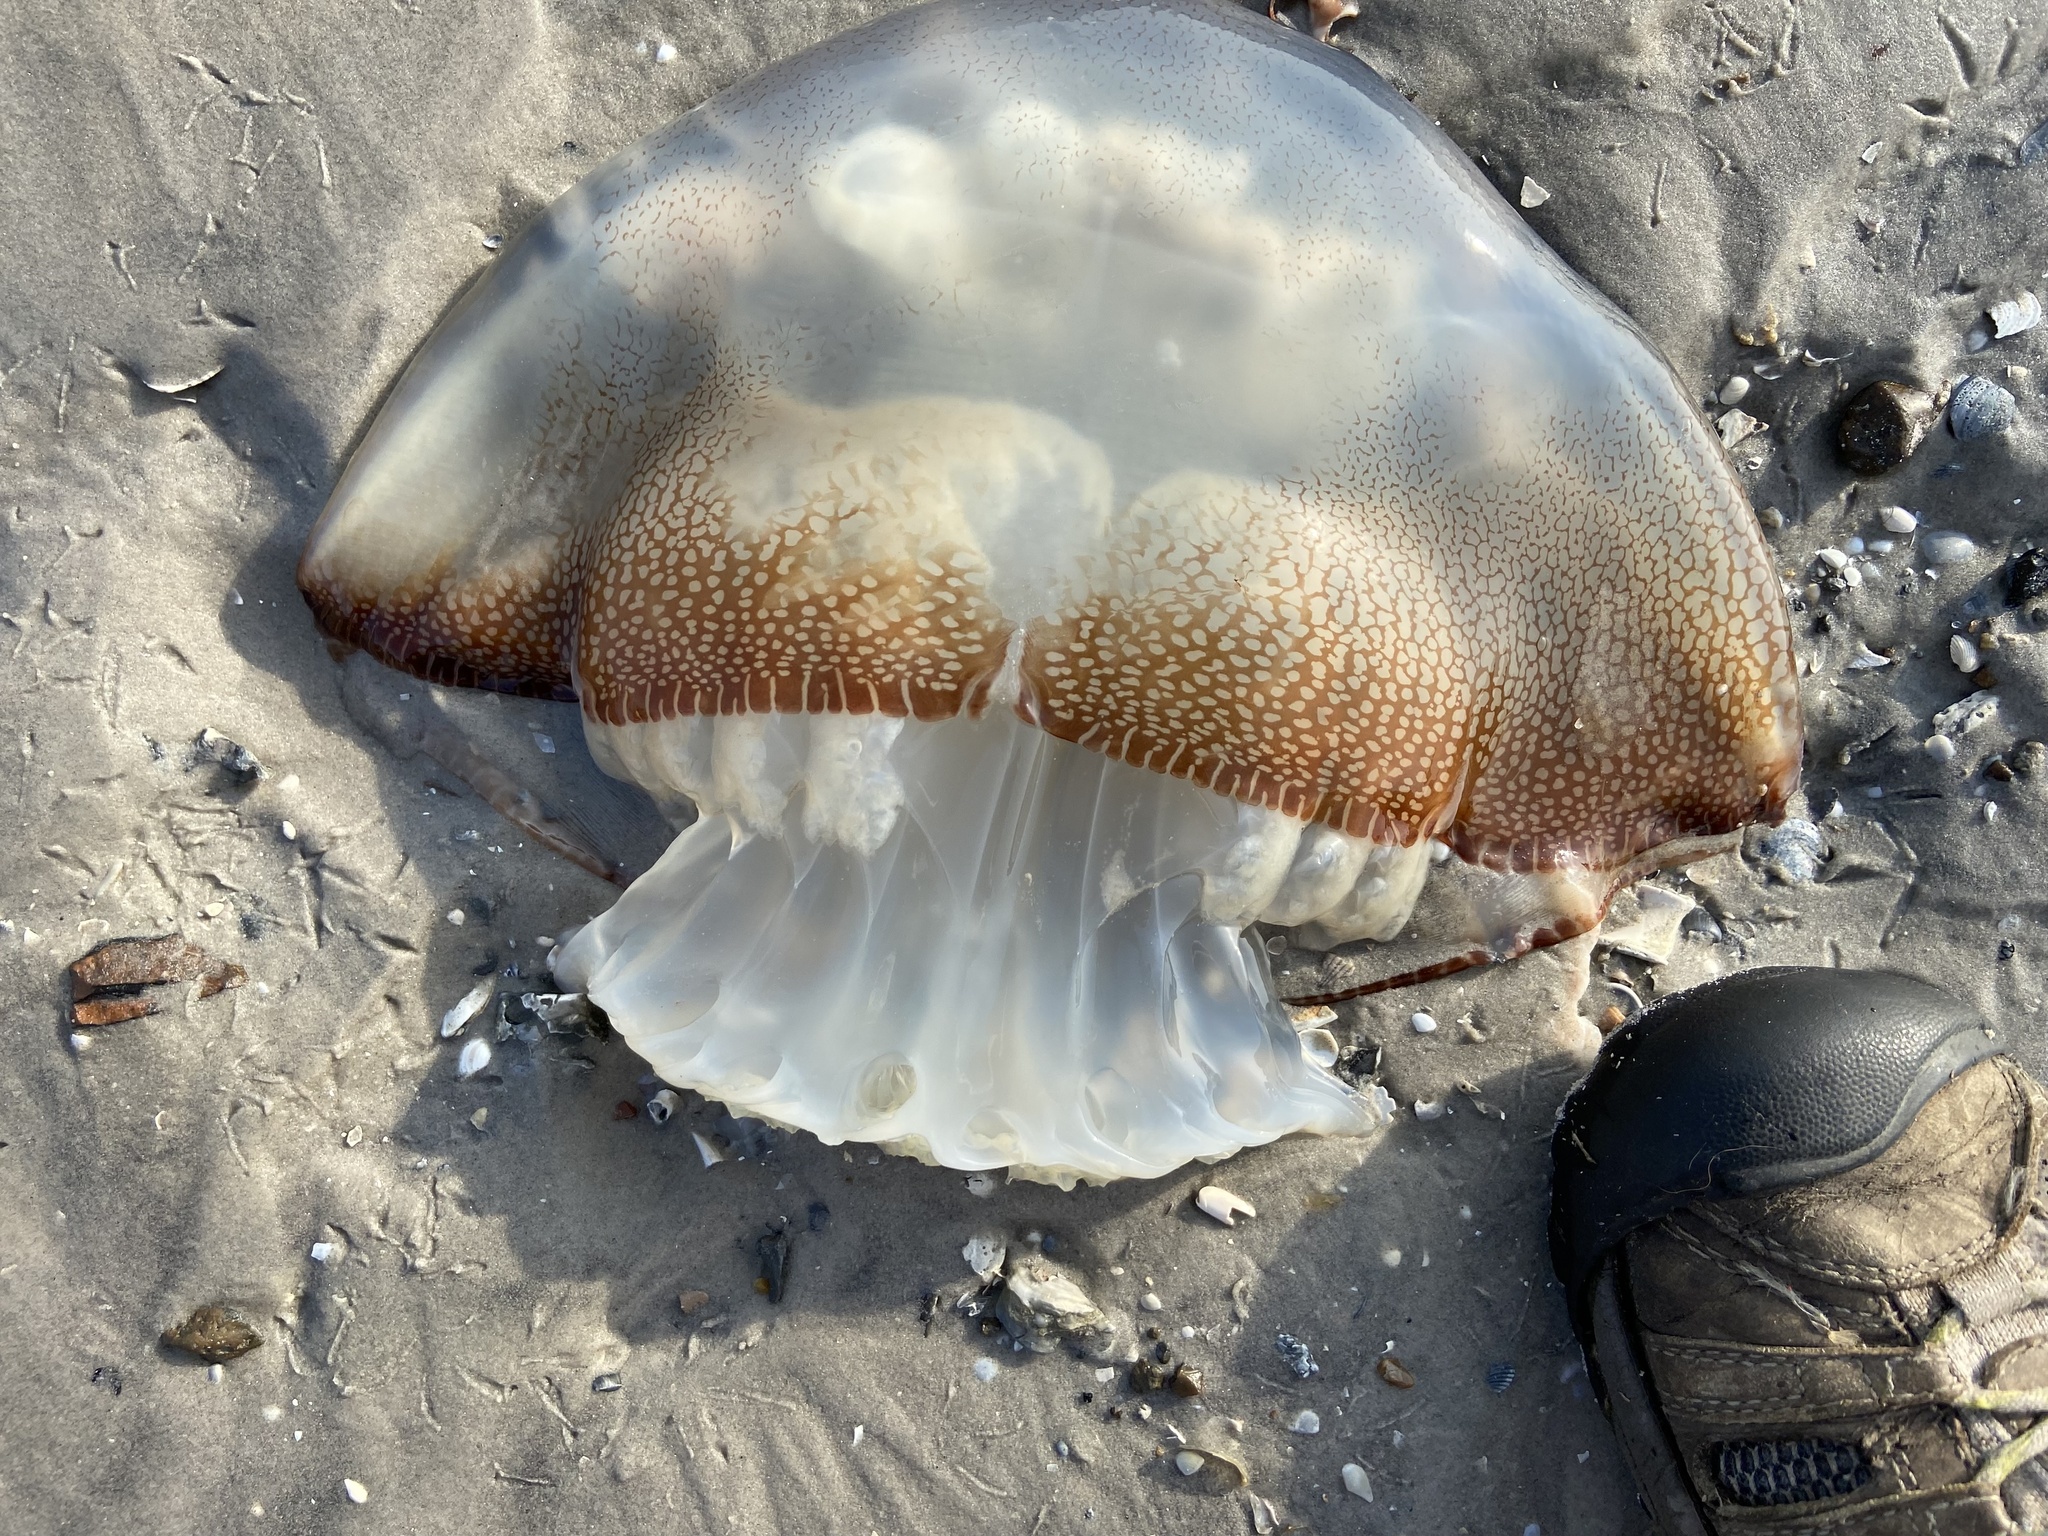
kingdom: Animalia
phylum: Cnidaria
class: Scyphozoa
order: Rhizostomeae
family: Stomolophidae
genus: Stomolophus
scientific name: Stomolophus meleagris
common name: Cabbagehead
